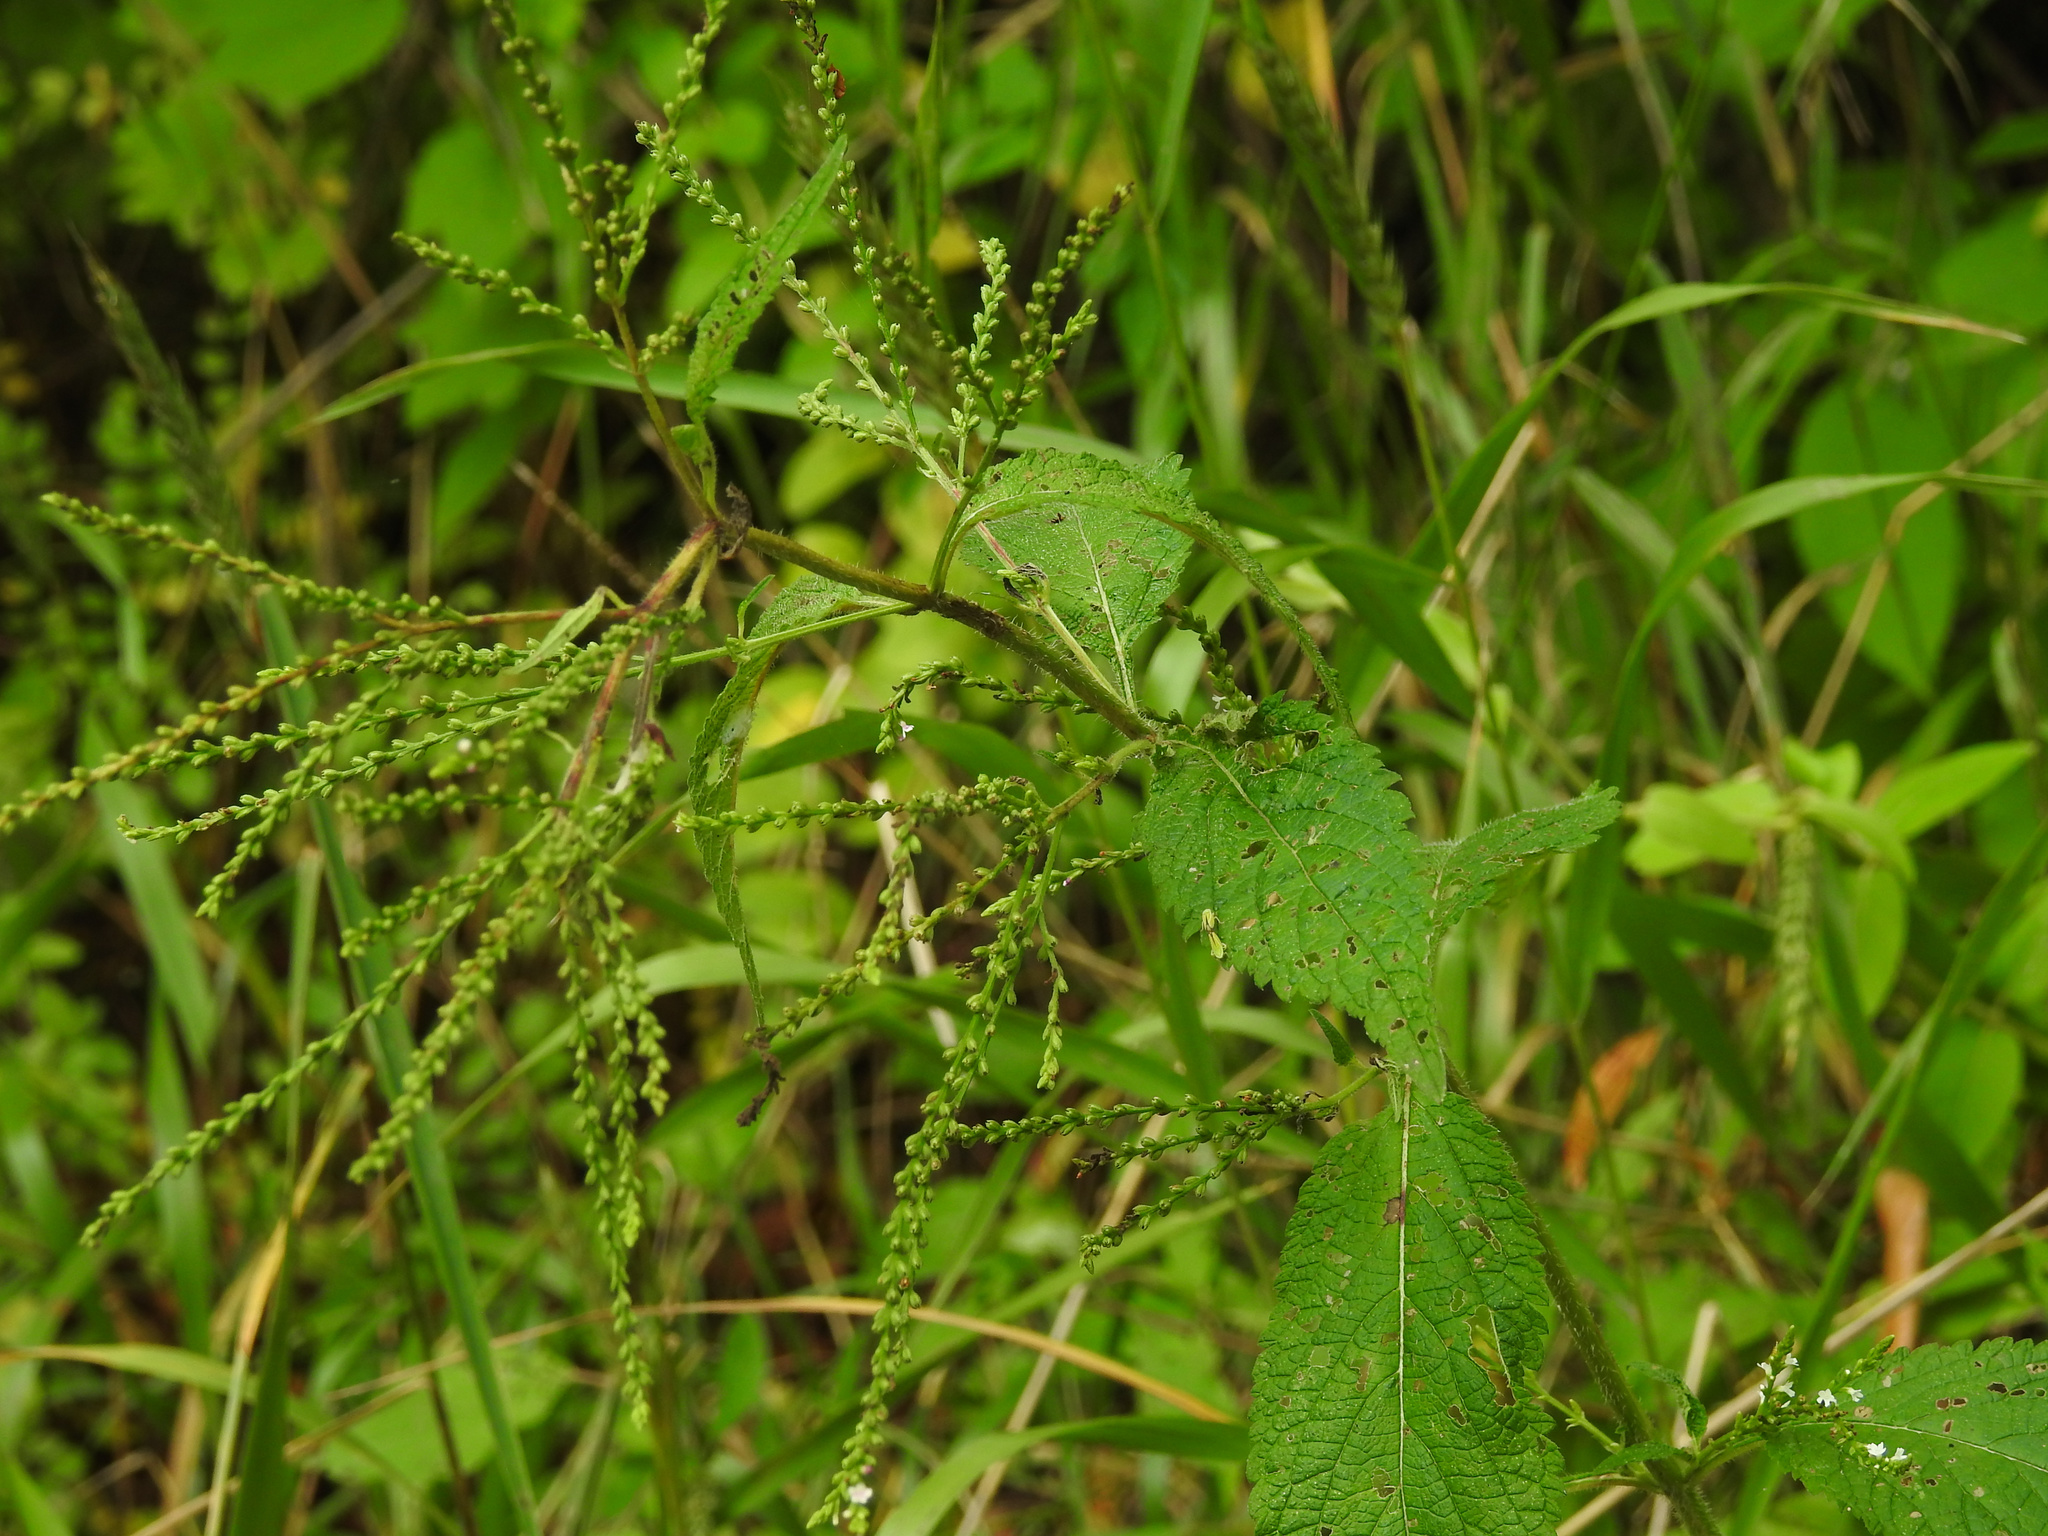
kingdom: Plantae
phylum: Tracheophyta
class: Magnoliopsida
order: Lamiales
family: Verbenaceae
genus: Verbena
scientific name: Verbena urticifolia
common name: Nettle-leaved vervain
